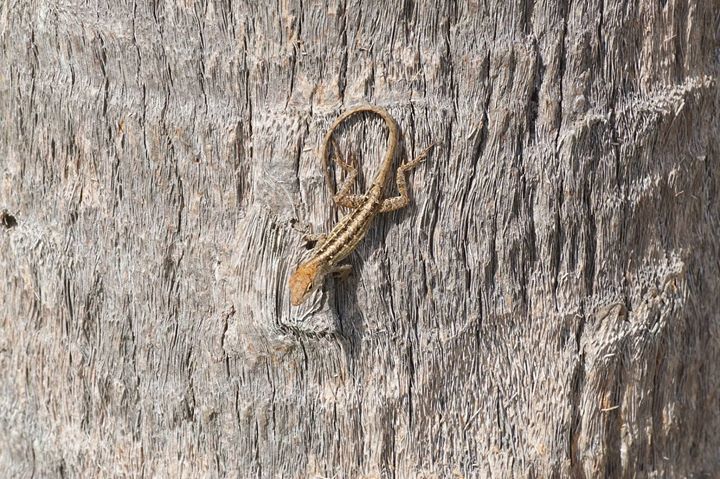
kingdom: Animalia
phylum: Chordata
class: Squamata
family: Dactyloidae
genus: Anolis
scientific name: Anolis sagrei
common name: Brown anole
